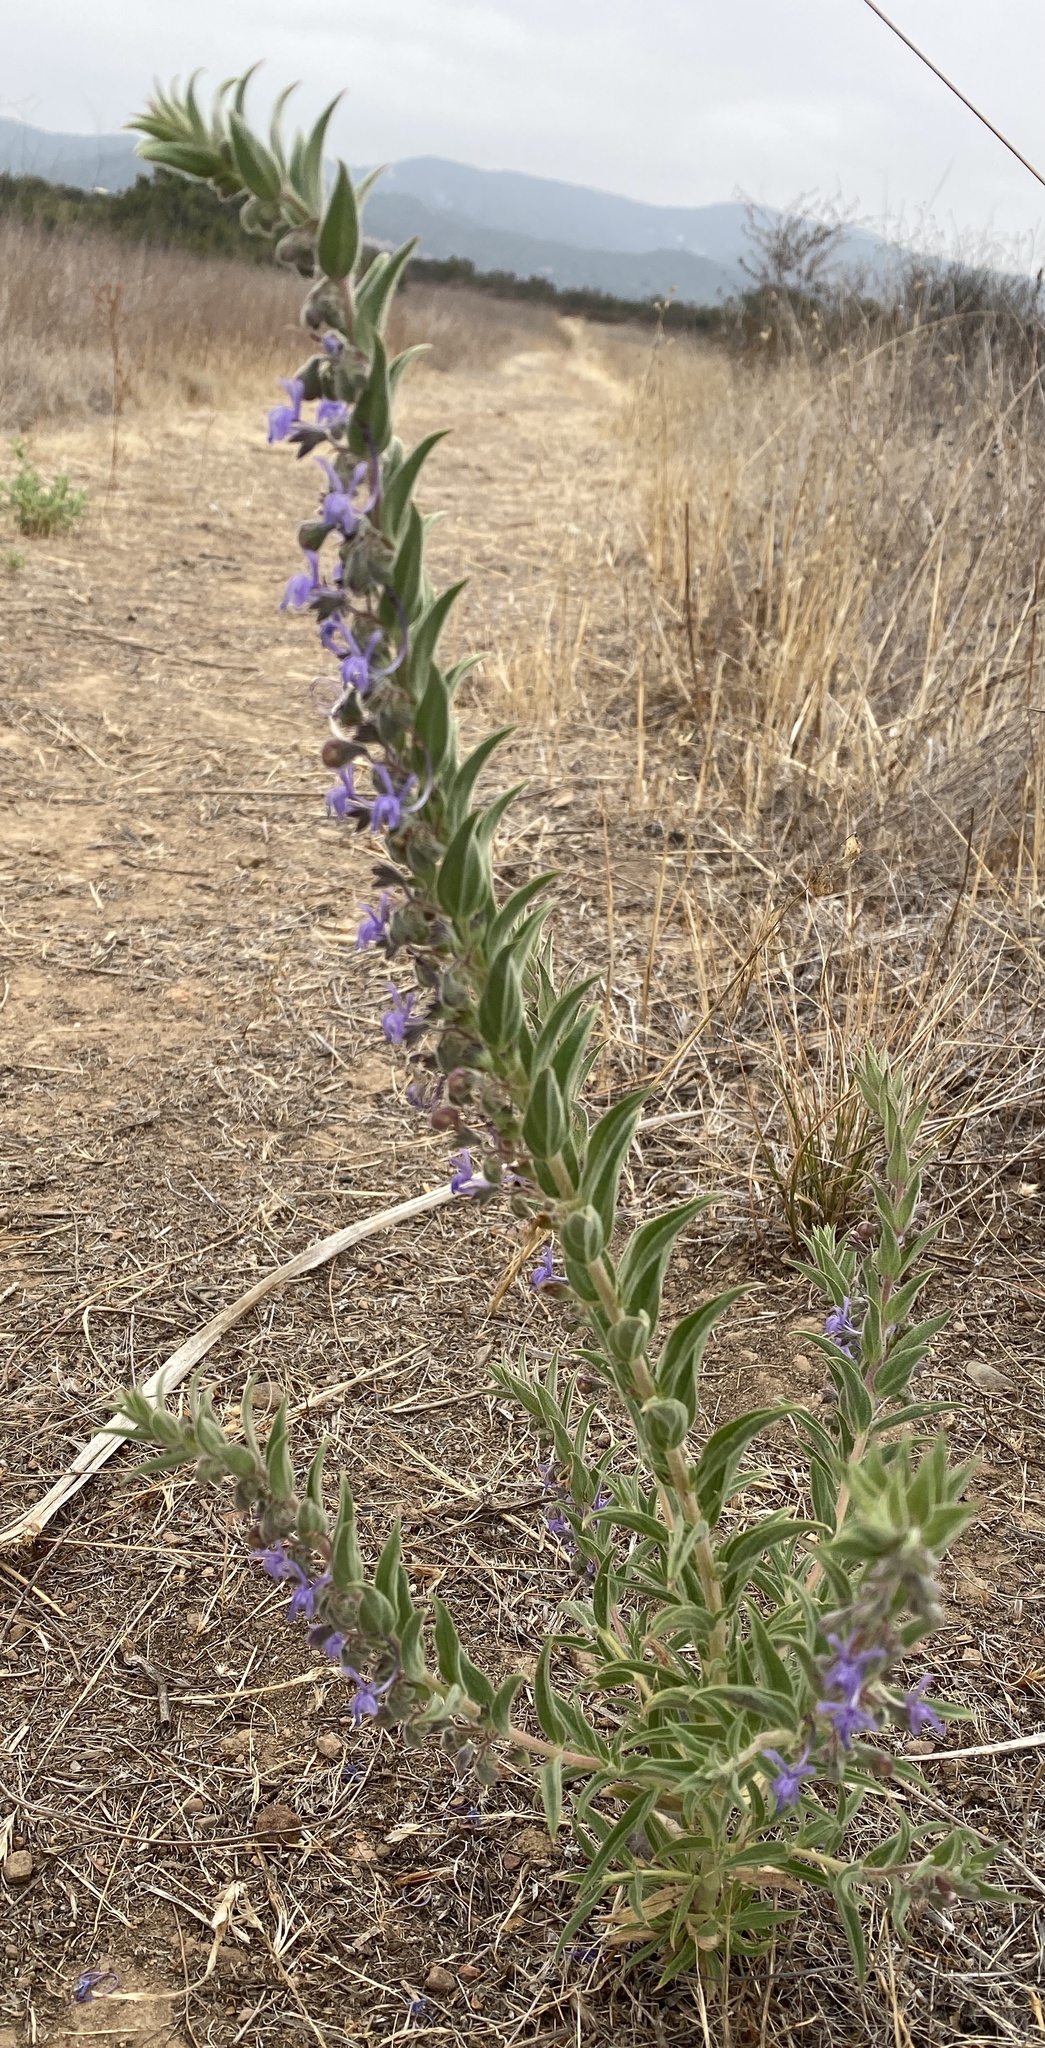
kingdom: Plantae
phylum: Tracheophyta
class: Magnoliopsida
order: Lamiales
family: Lamiaceae
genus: Trichostema
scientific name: Trichostema lanceolatum
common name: Vinegar-weed
